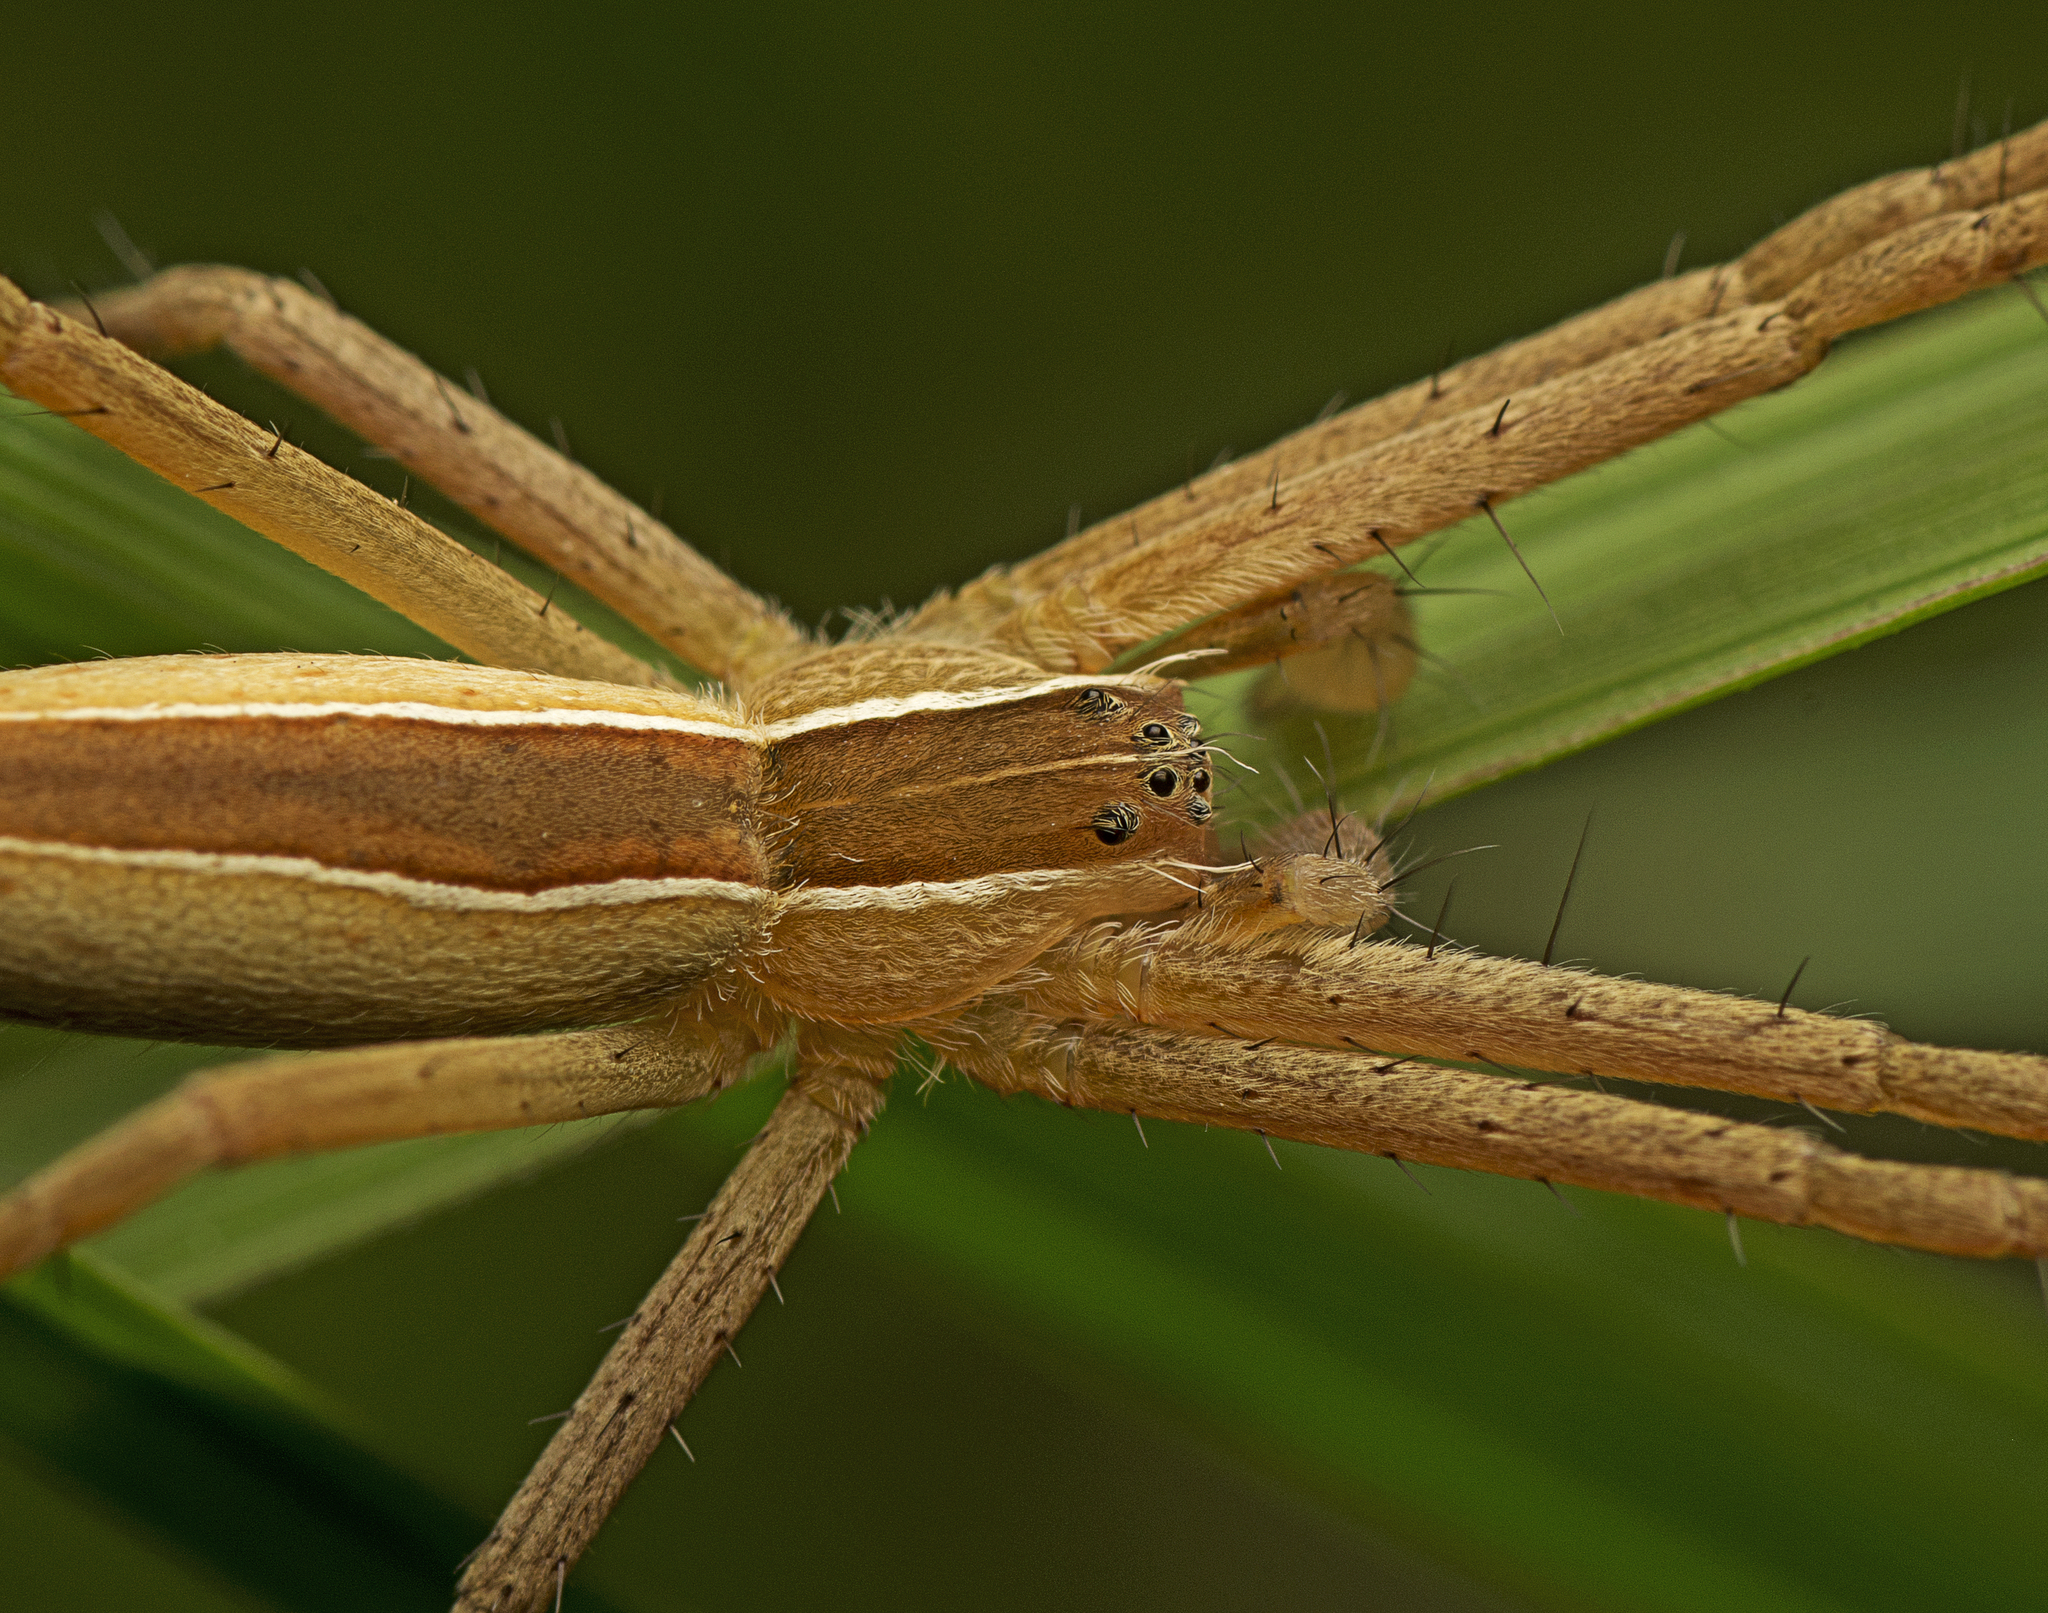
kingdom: Animalia
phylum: Arthropoda
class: Arachnida
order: Araneae
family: Pisauridae
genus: Perenethis
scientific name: Perenethis venusta
